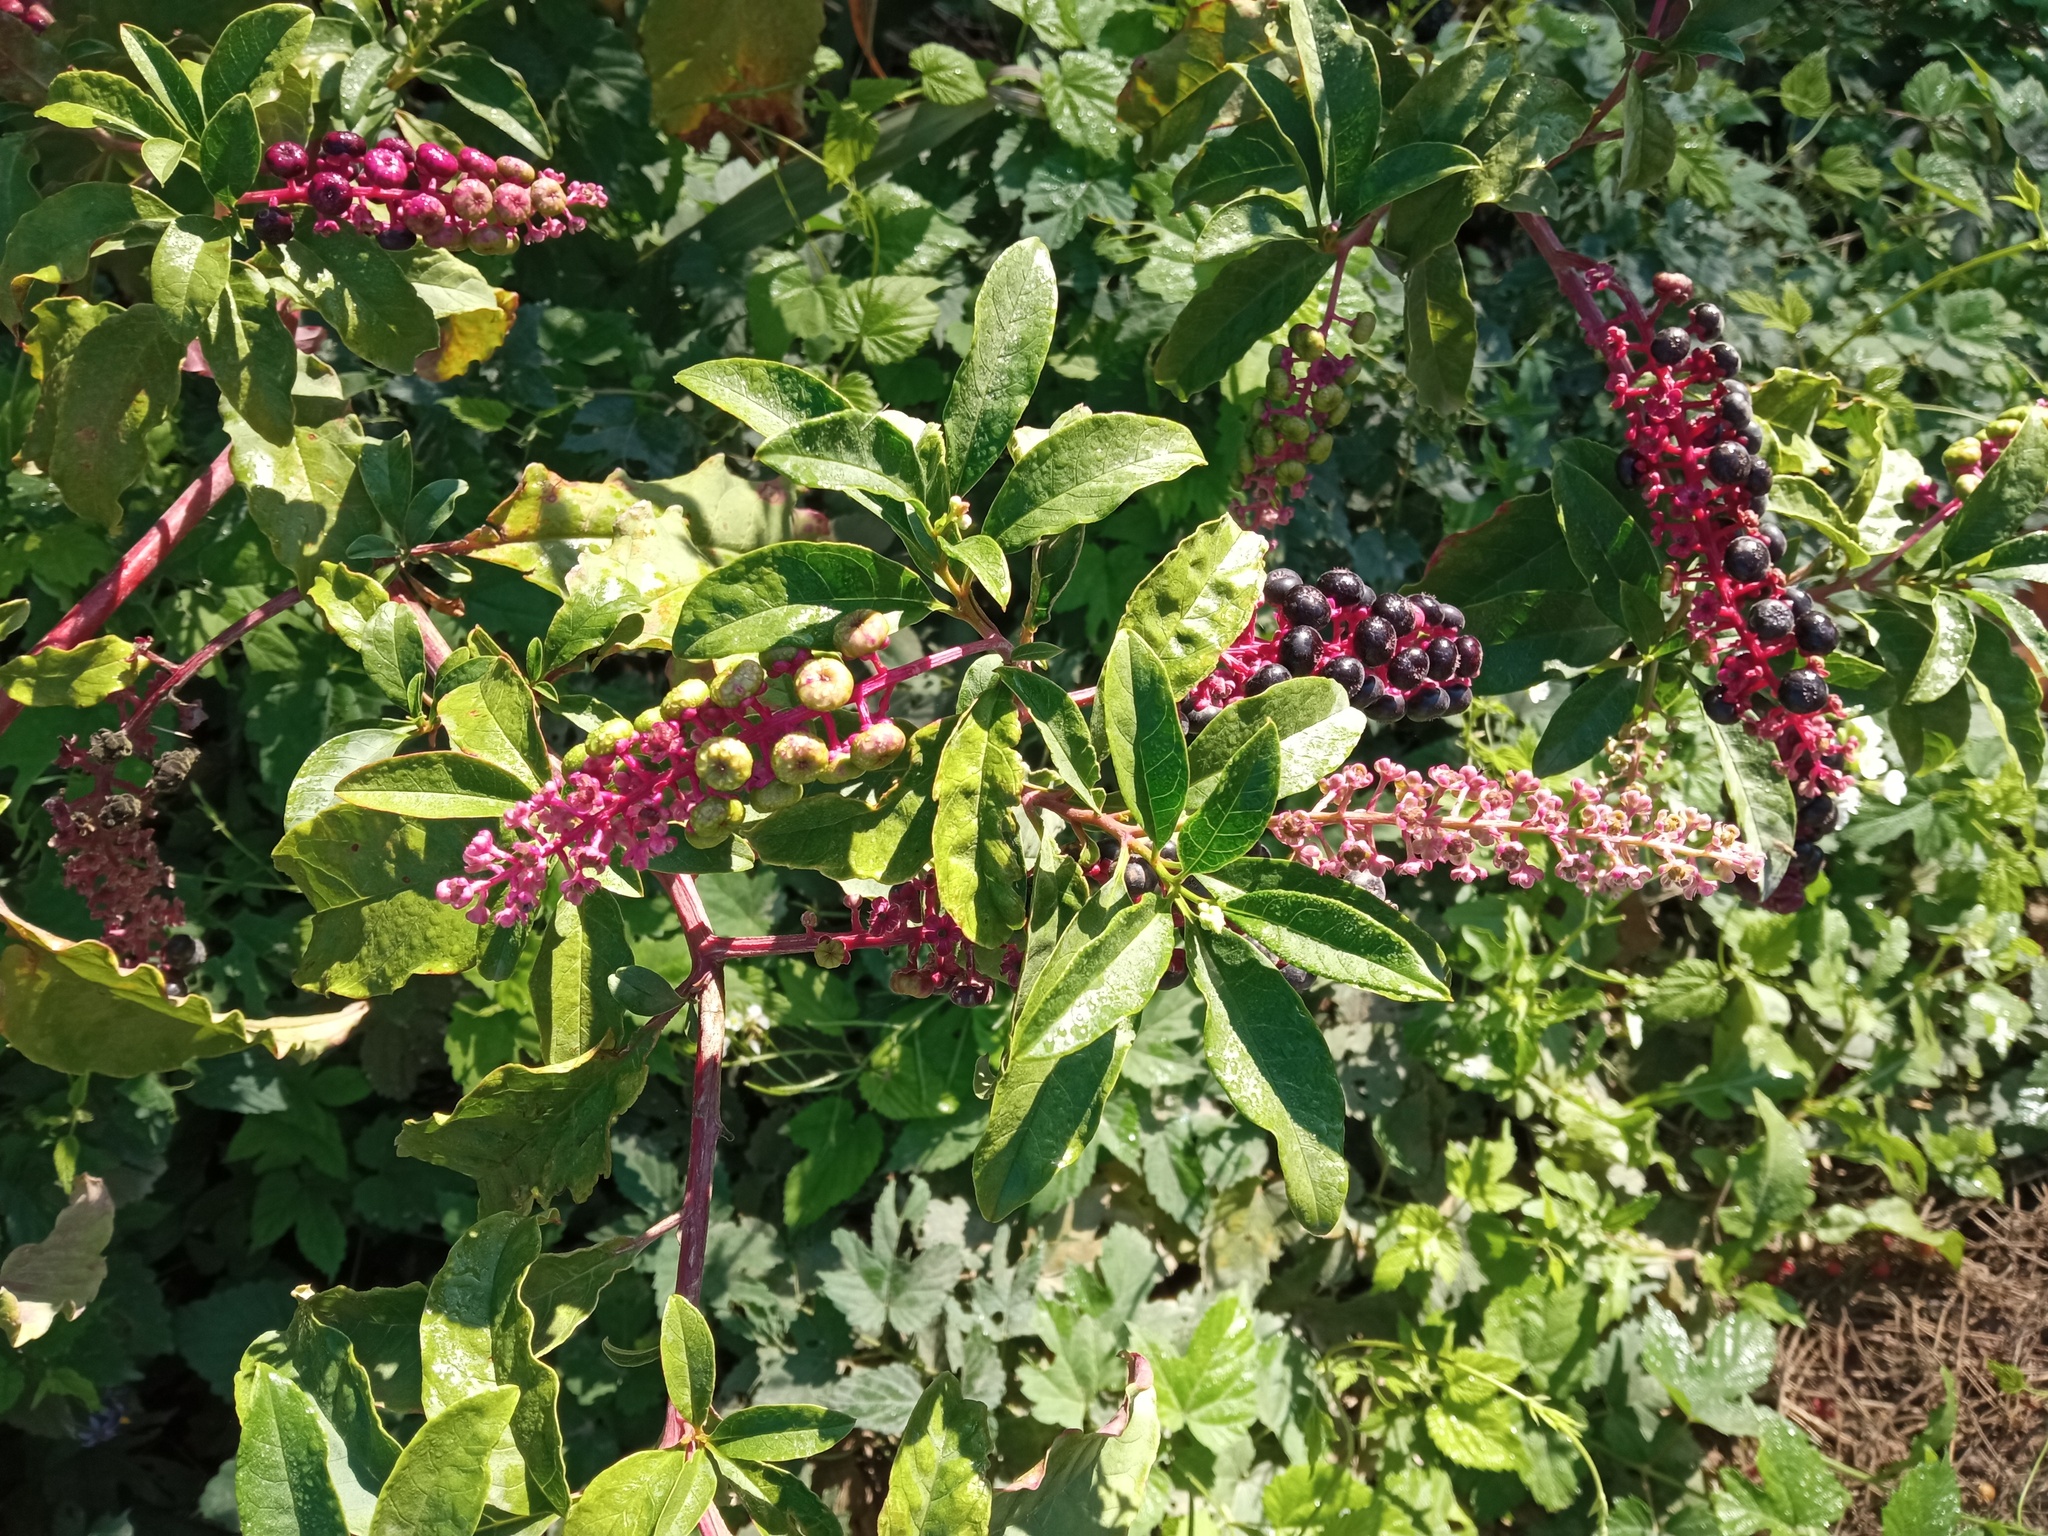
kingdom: Plantae
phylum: Tracheophyta
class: Magnoliopsida
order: Caryophyllales
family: Phytolaccaceae
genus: Phytolacca
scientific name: Phytolacca americana
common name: American pokeweed
